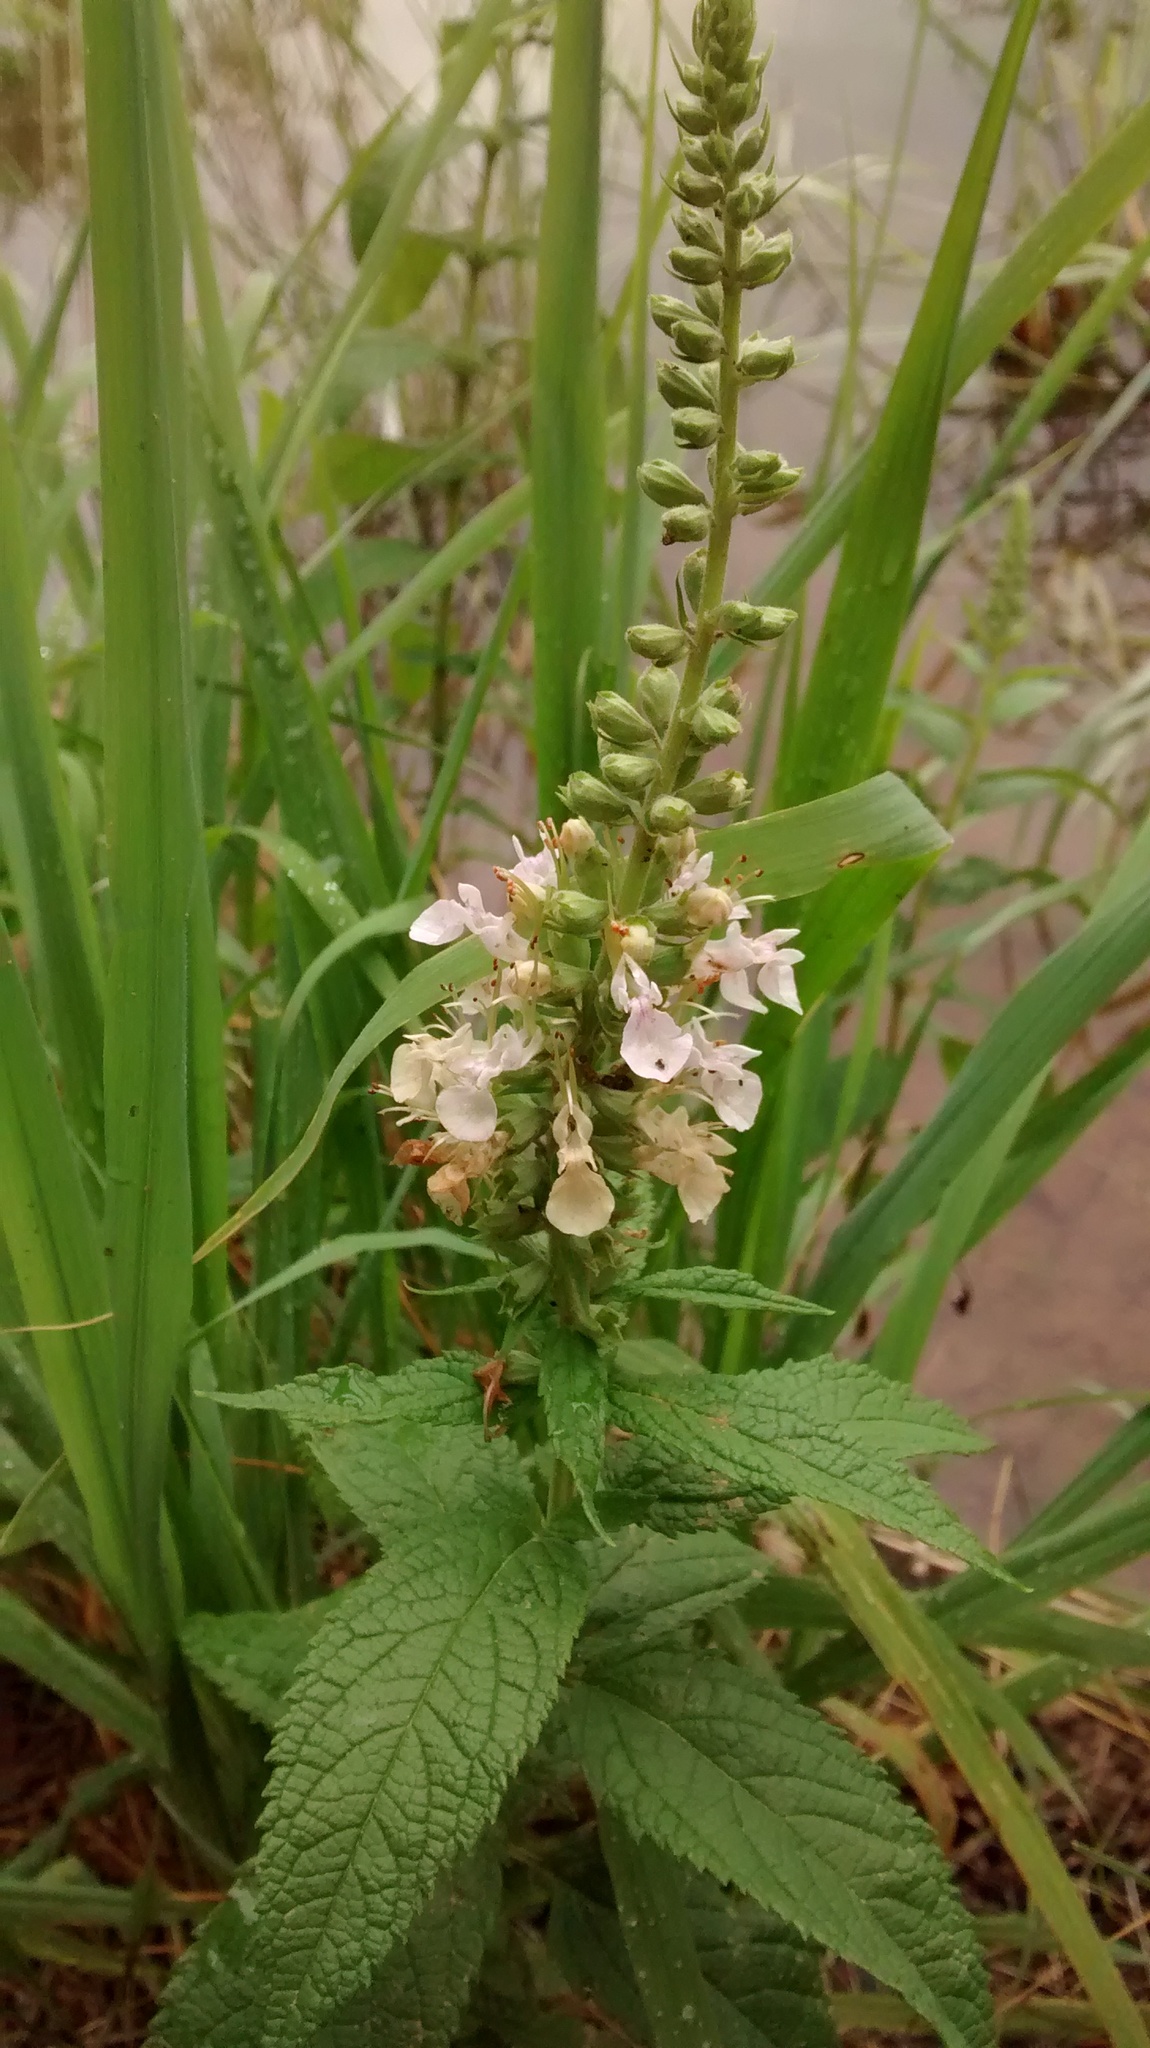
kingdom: Plantae
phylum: Tracheophyta
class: Magnoliopsida
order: Lamiales
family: Lamiaceae
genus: Teucrium
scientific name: Teucrium canadense
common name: American germander
